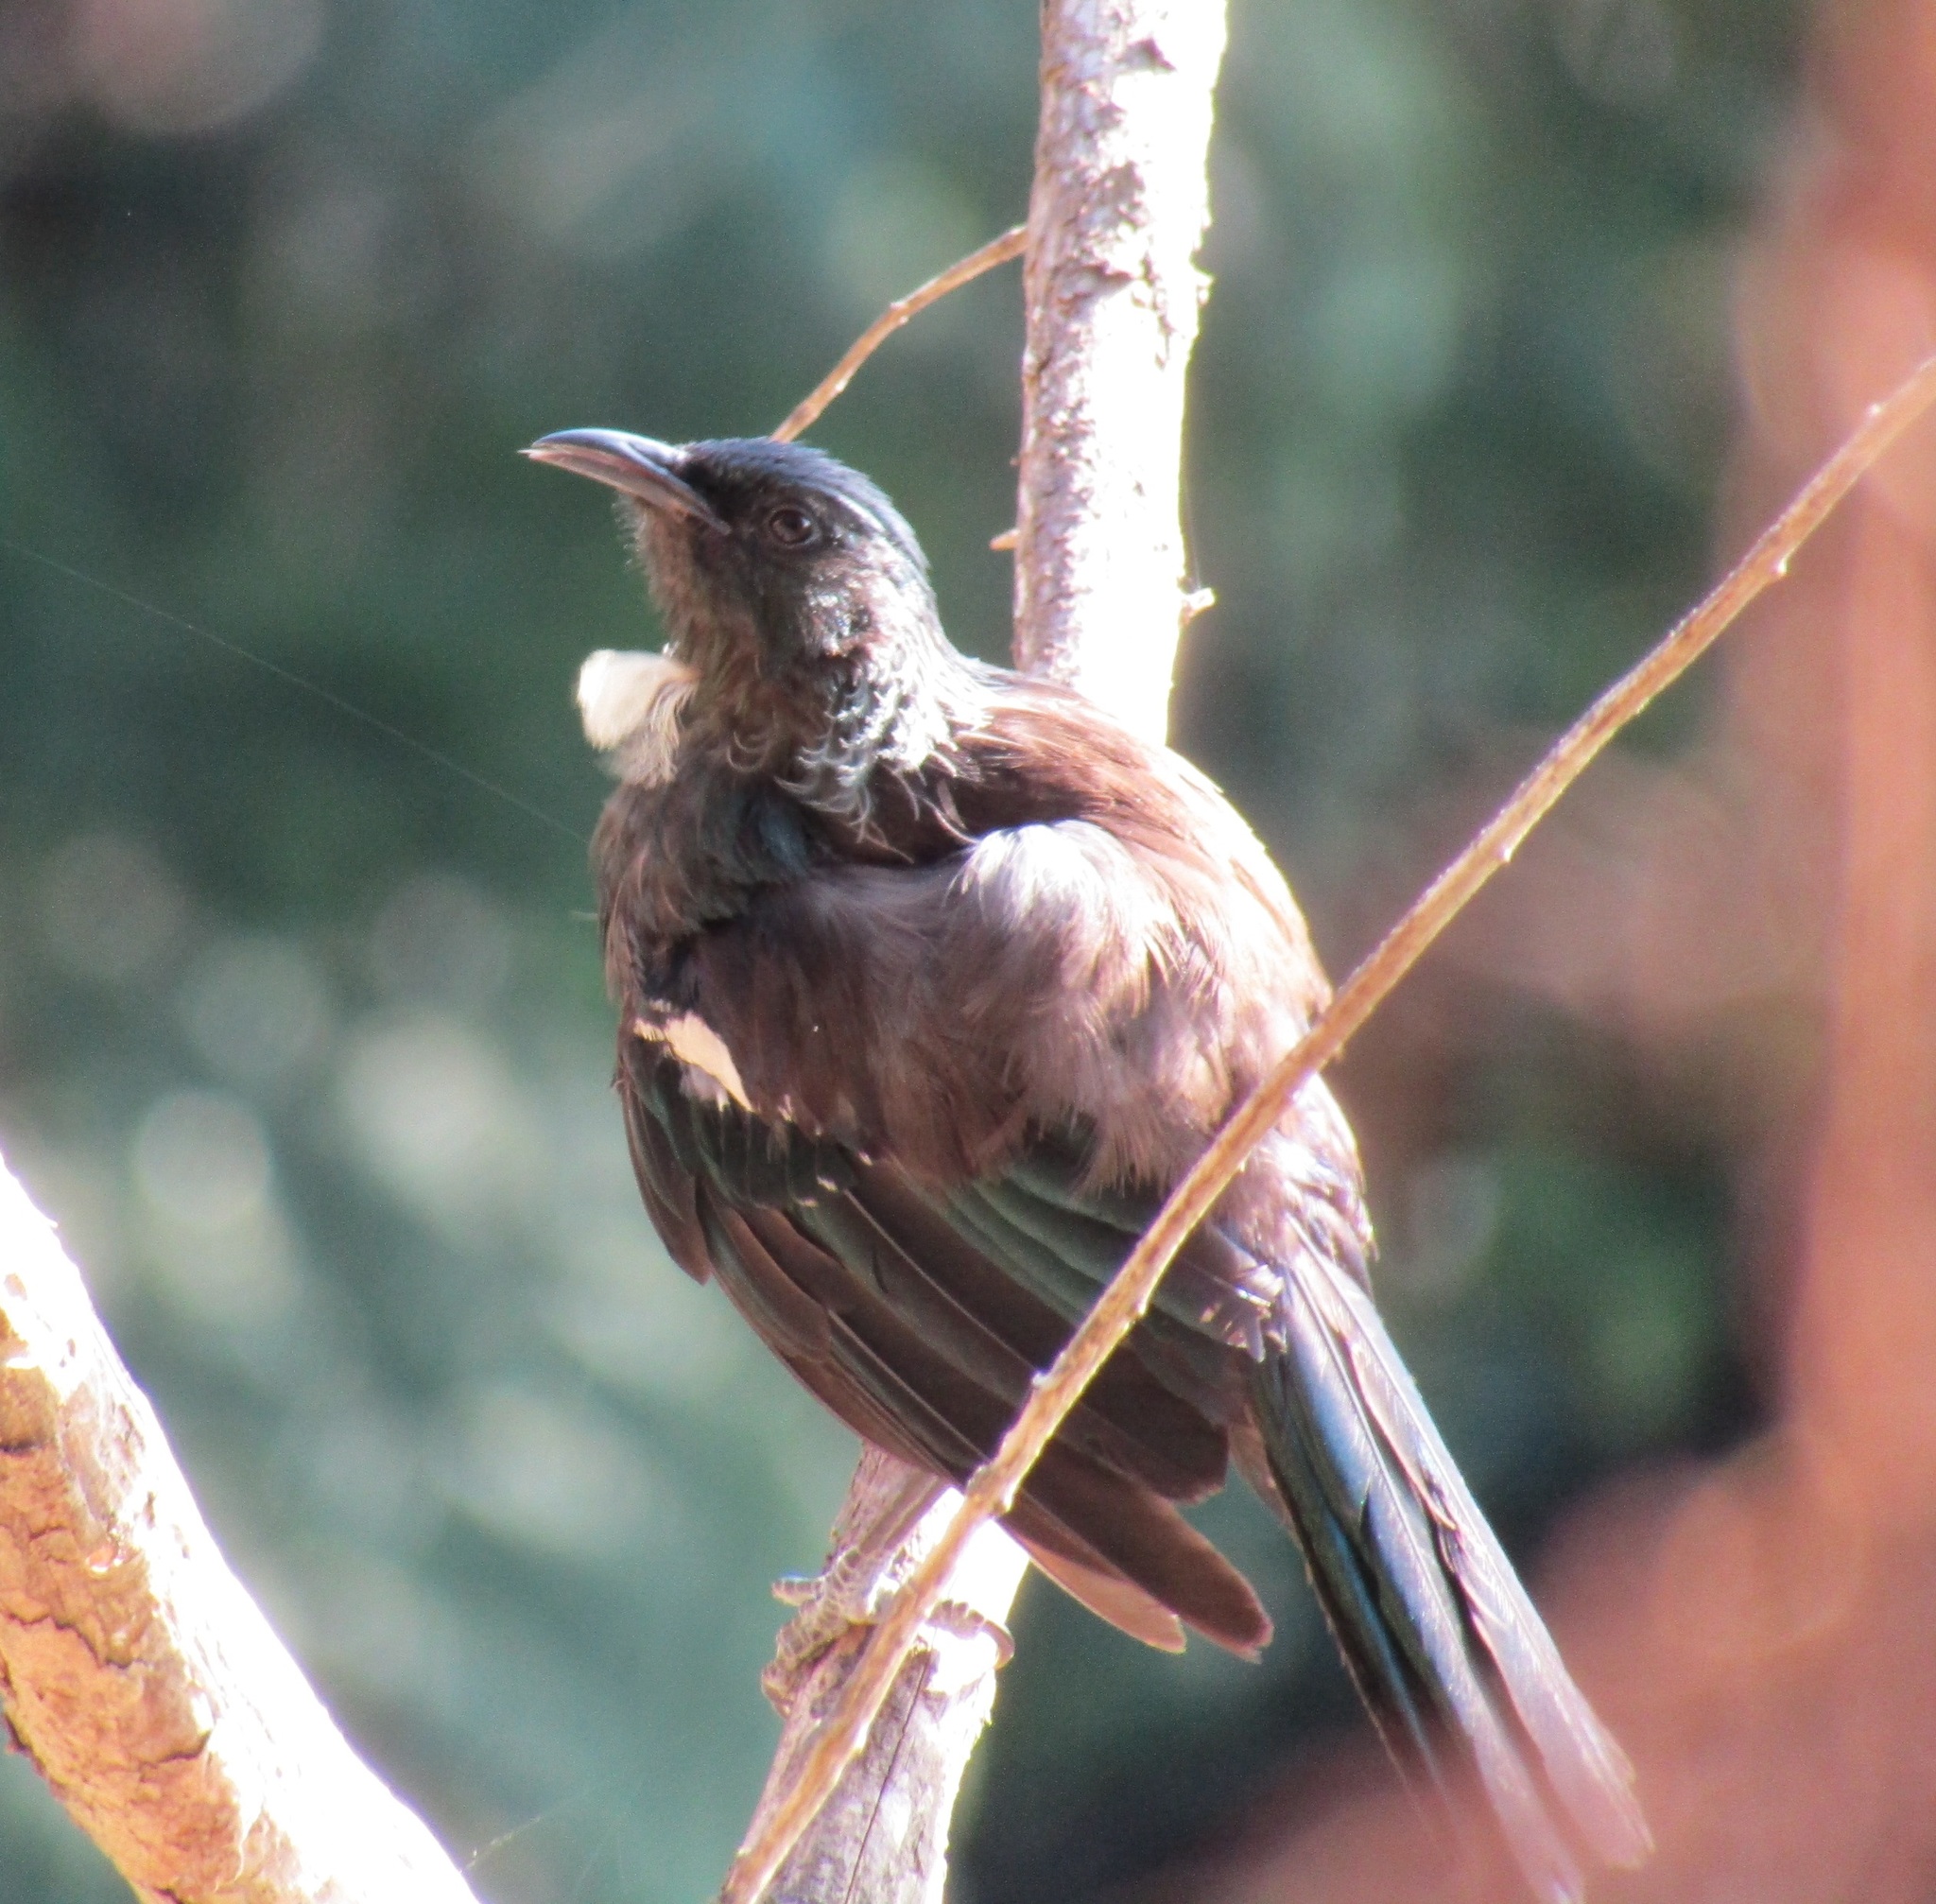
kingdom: Animalia
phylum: Chordata
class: Aves
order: Passeriformes
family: Meliphagidae
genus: Prosthemadera
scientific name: Prosthemadera novaeseelandiae
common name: Tui
